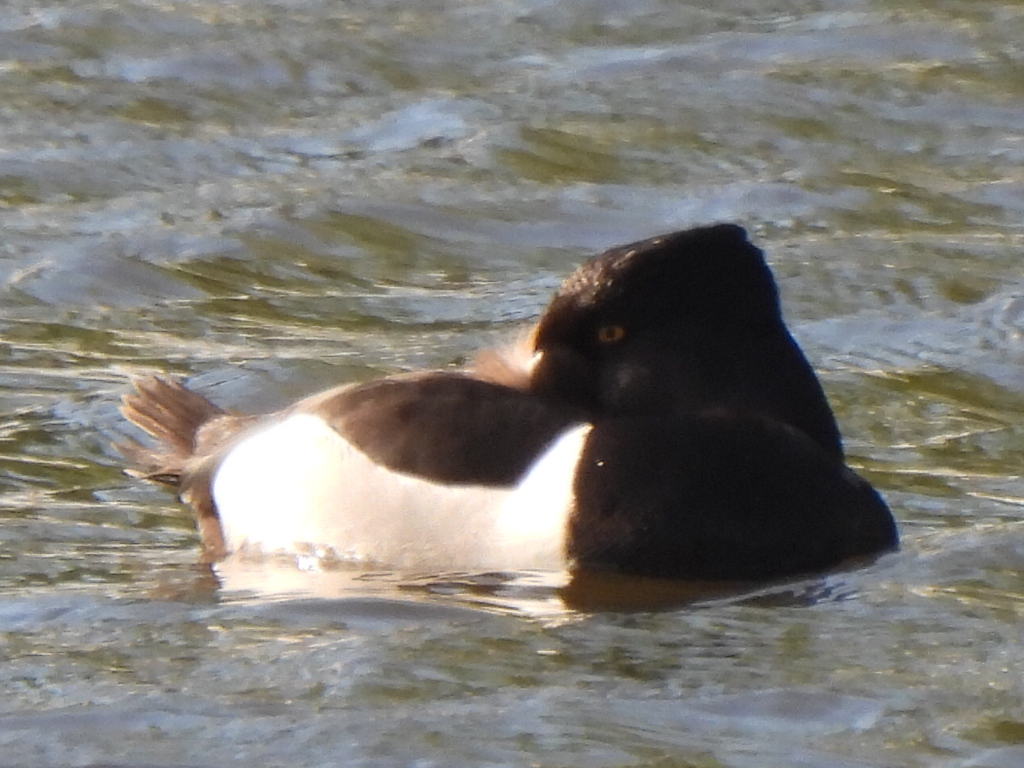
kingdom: Animalia
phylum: Chordata
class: Aves
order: Anseriformes
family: Anatidae
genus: Aythya
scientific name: Aythya collaris
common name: Ring-necked duck
